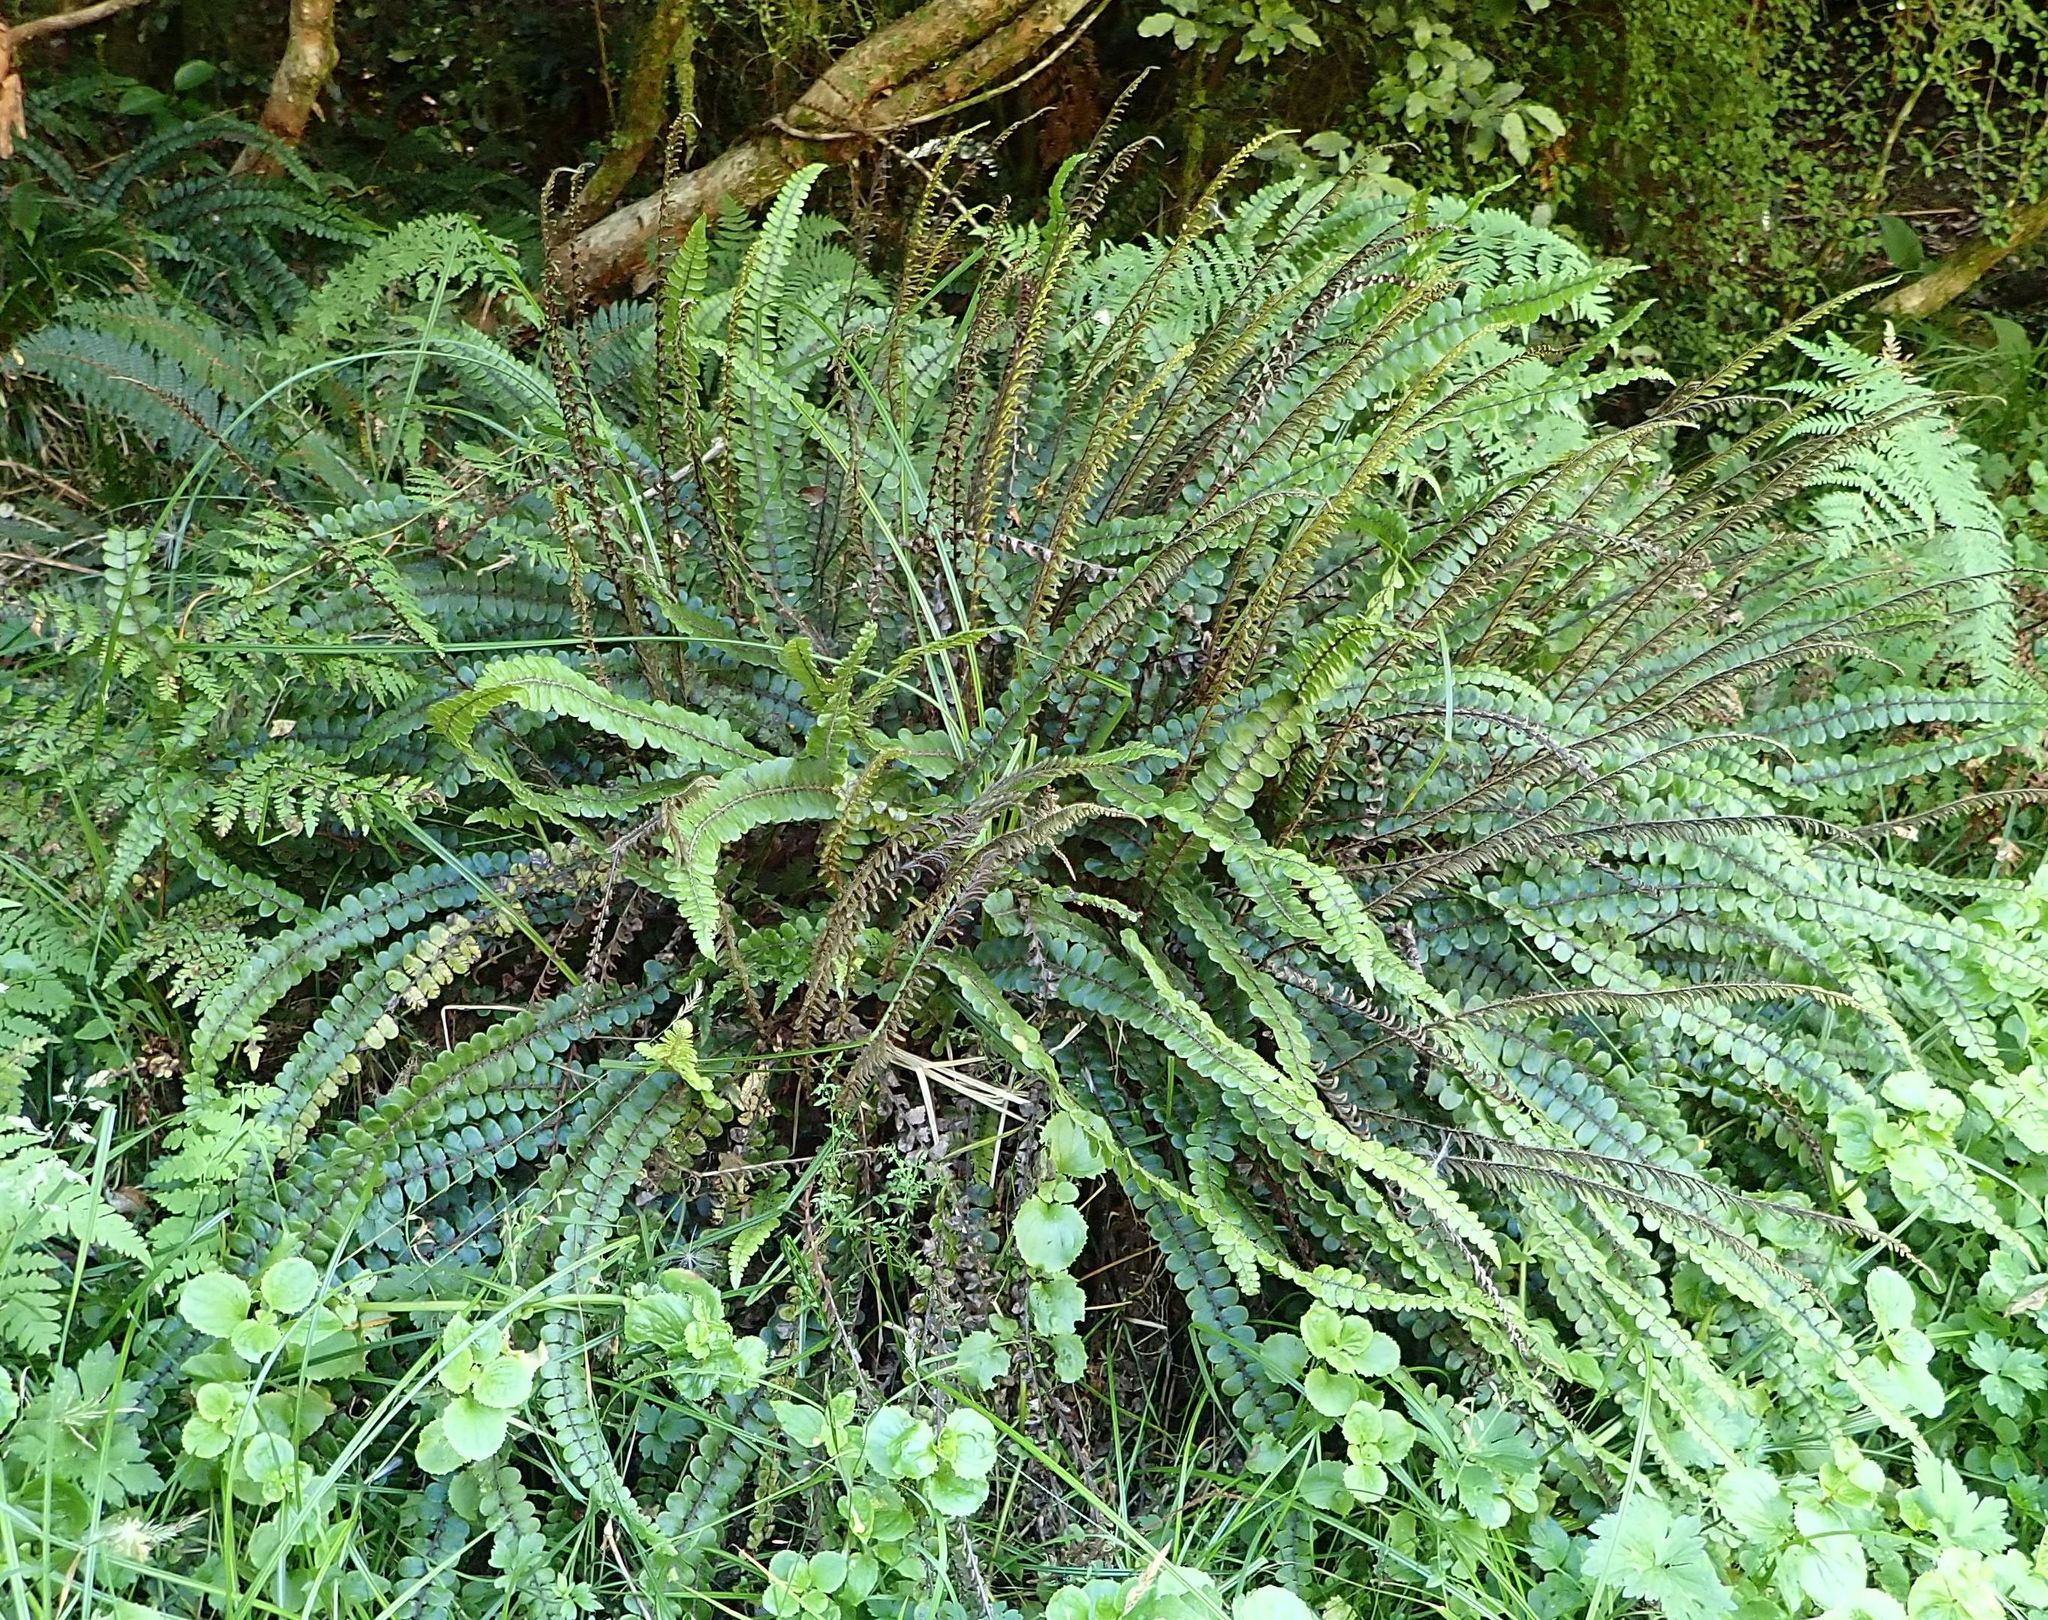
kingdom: Plantae
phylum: Tracheophyta
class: Polypodiopsida
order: Polypodiales
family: Blechnaceae
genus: Cranfillia
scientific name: Cranfillia fluviatilis
